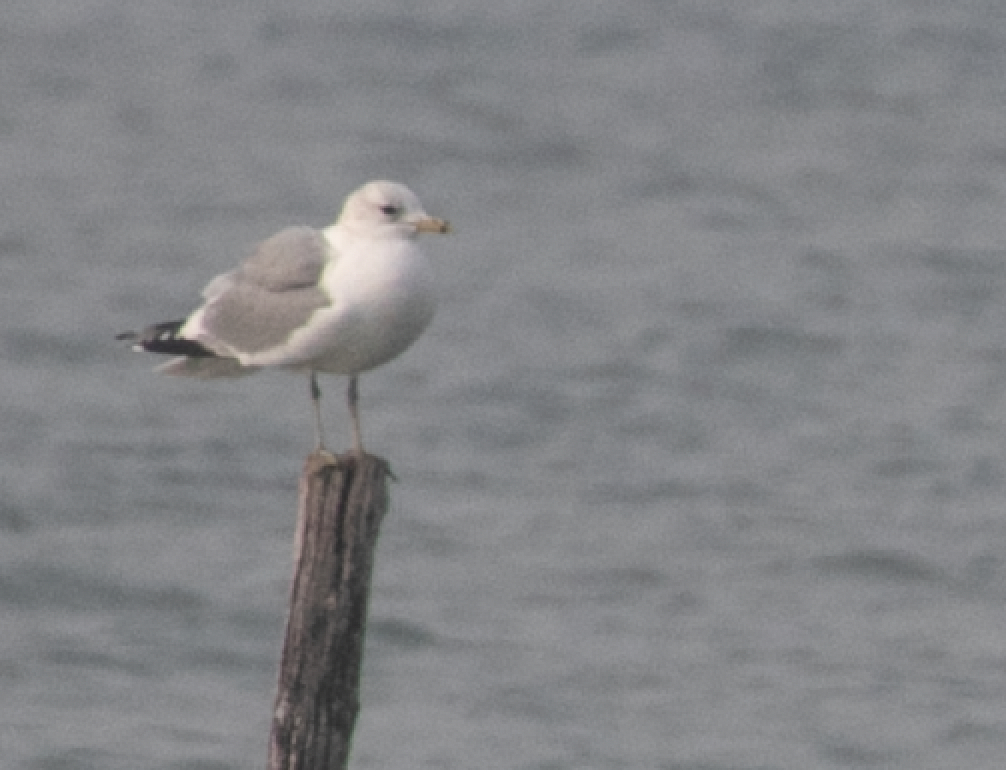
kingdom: Animalia
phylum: Chordata
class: Aves
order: Charadriiformes
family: Laridae
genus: Larus
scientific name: Larus canus
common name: Mew gull
